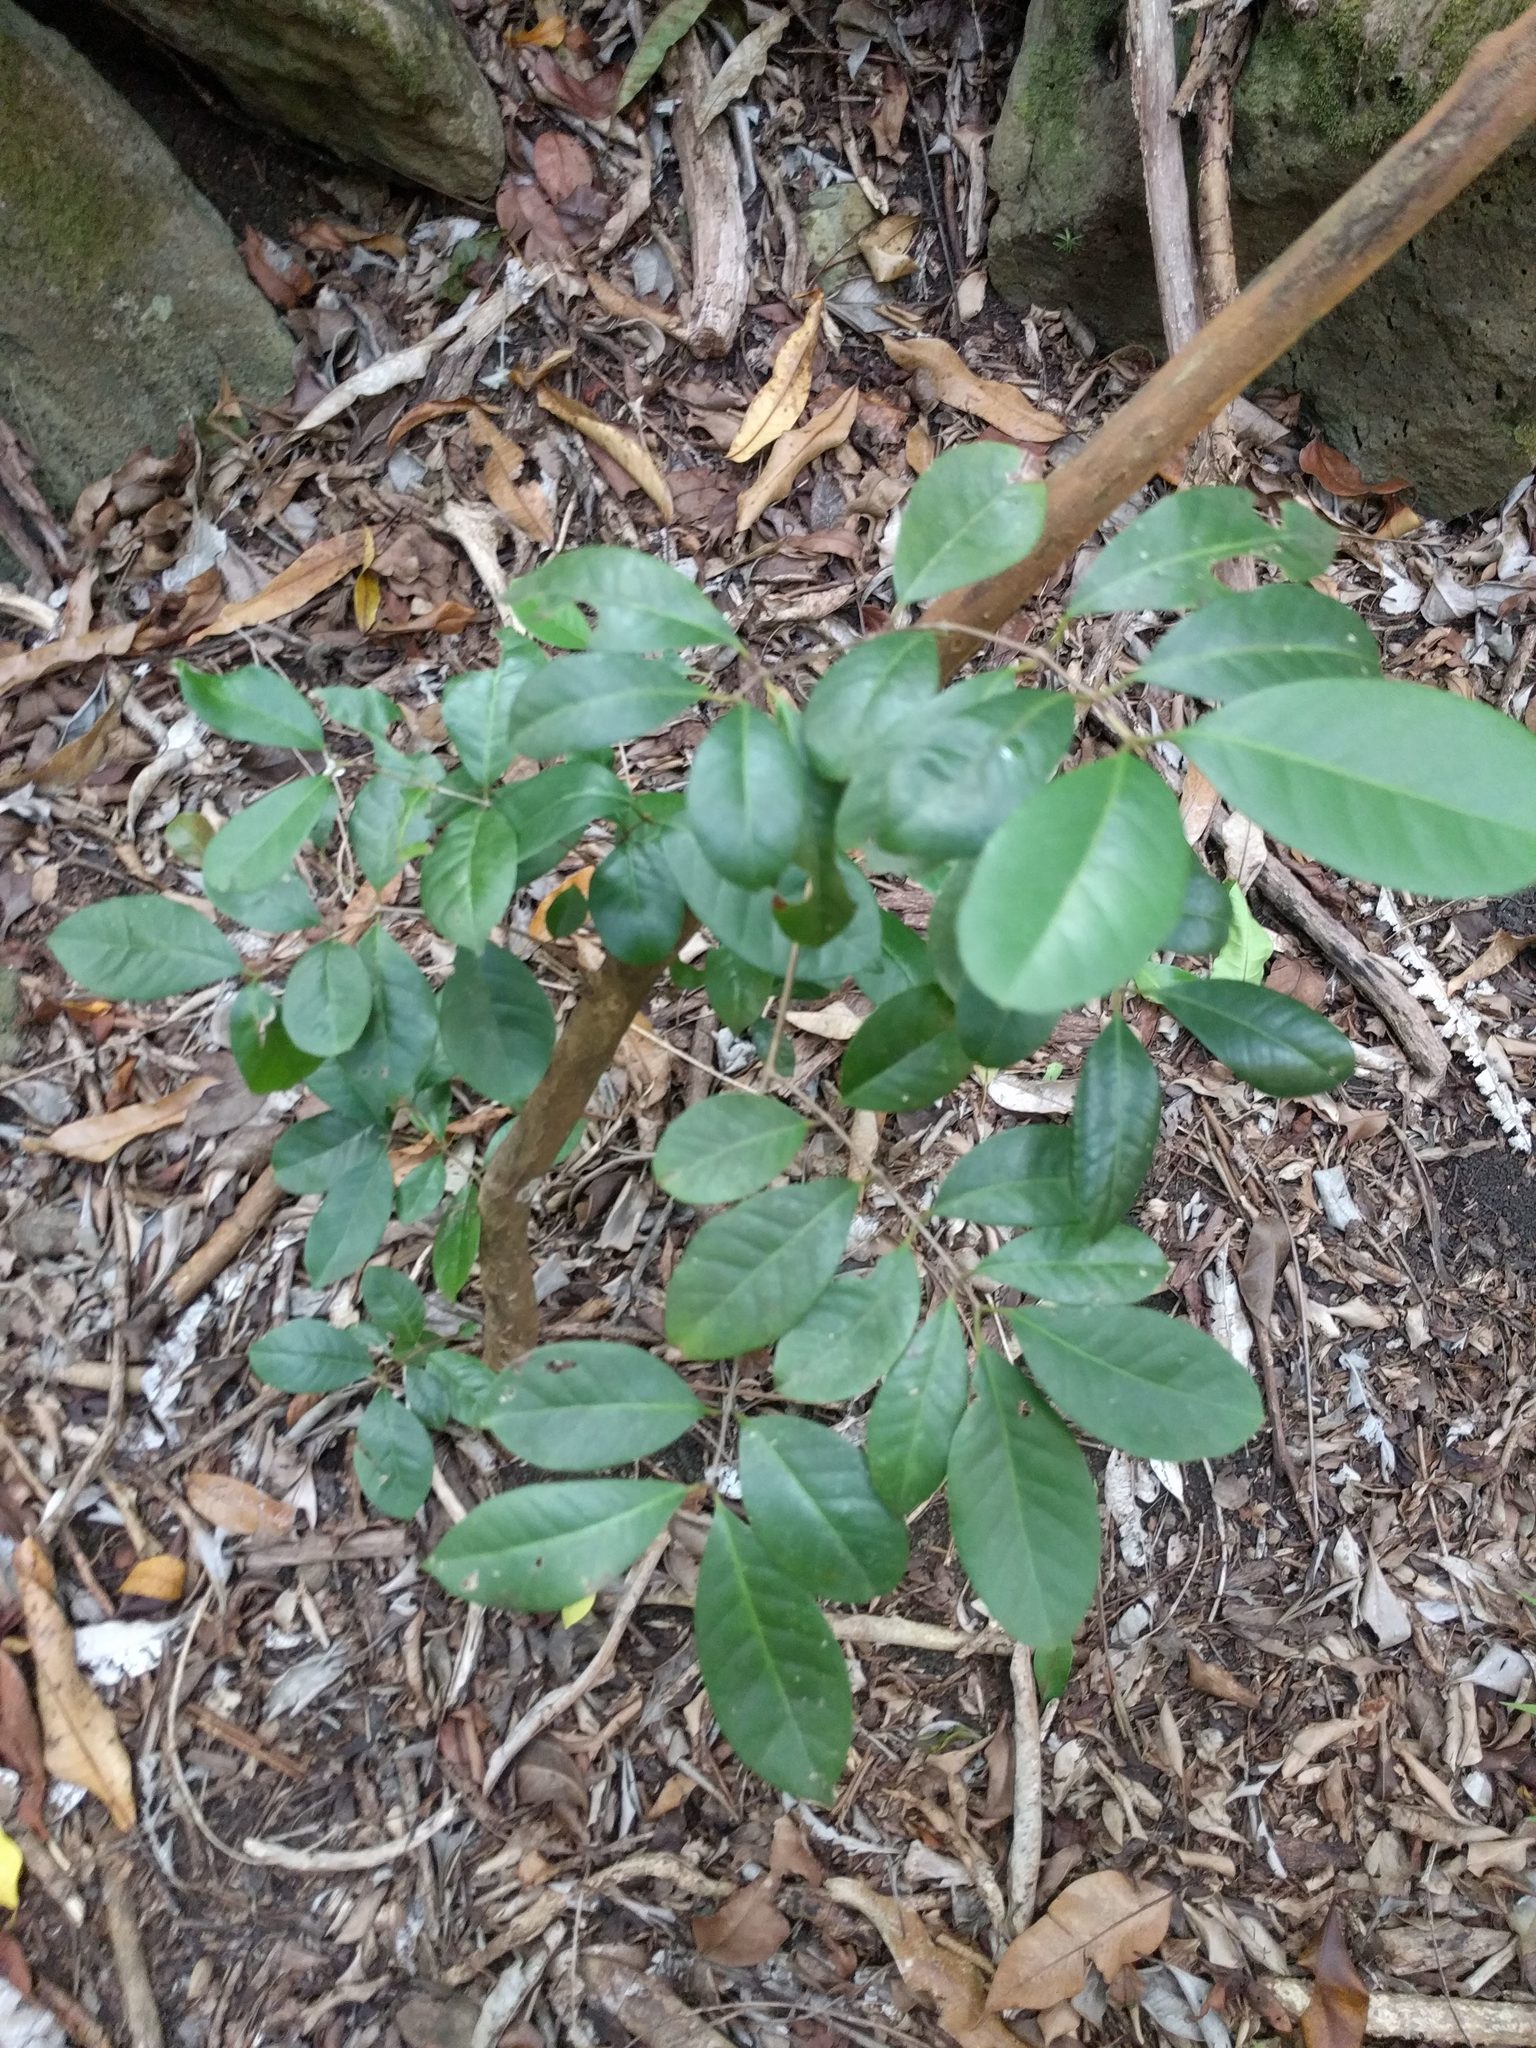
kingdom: Plantae
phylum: Tracheophyta
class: Magnoliopsida
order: Myrtales
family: Myrtaceae
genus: Psidium
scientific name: Psidium cattleianum
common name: Strawberry guava
